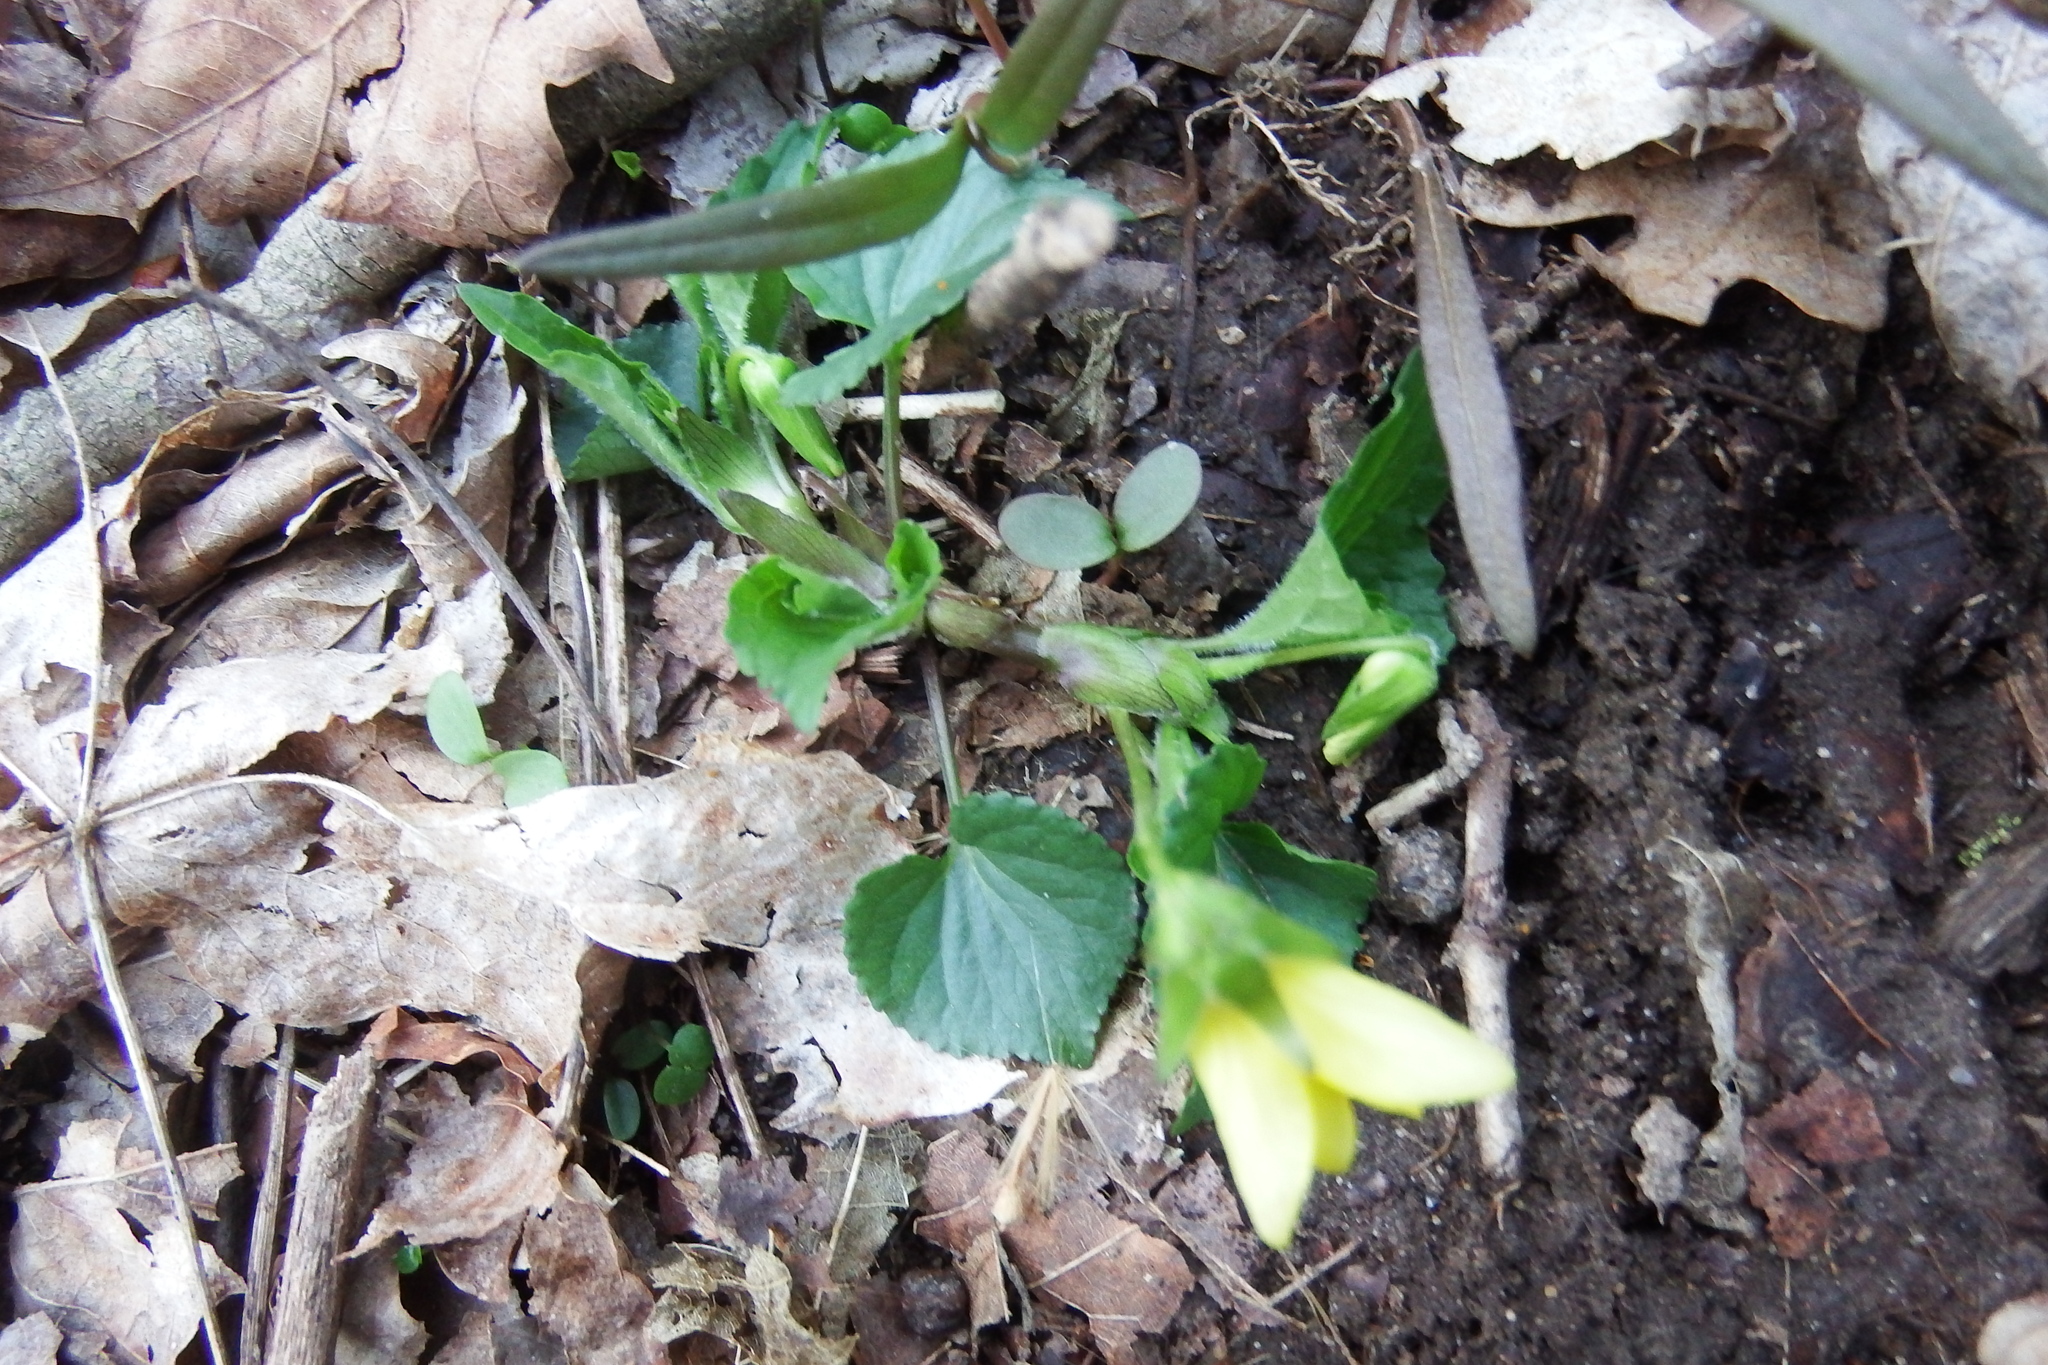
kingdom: Plantae
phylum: Tracheophyta
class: Magnoliopsida
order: Malpighiales
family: Violaceae
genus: Viola
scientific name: Viola eriocarpa
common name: Smooth yellow violet
